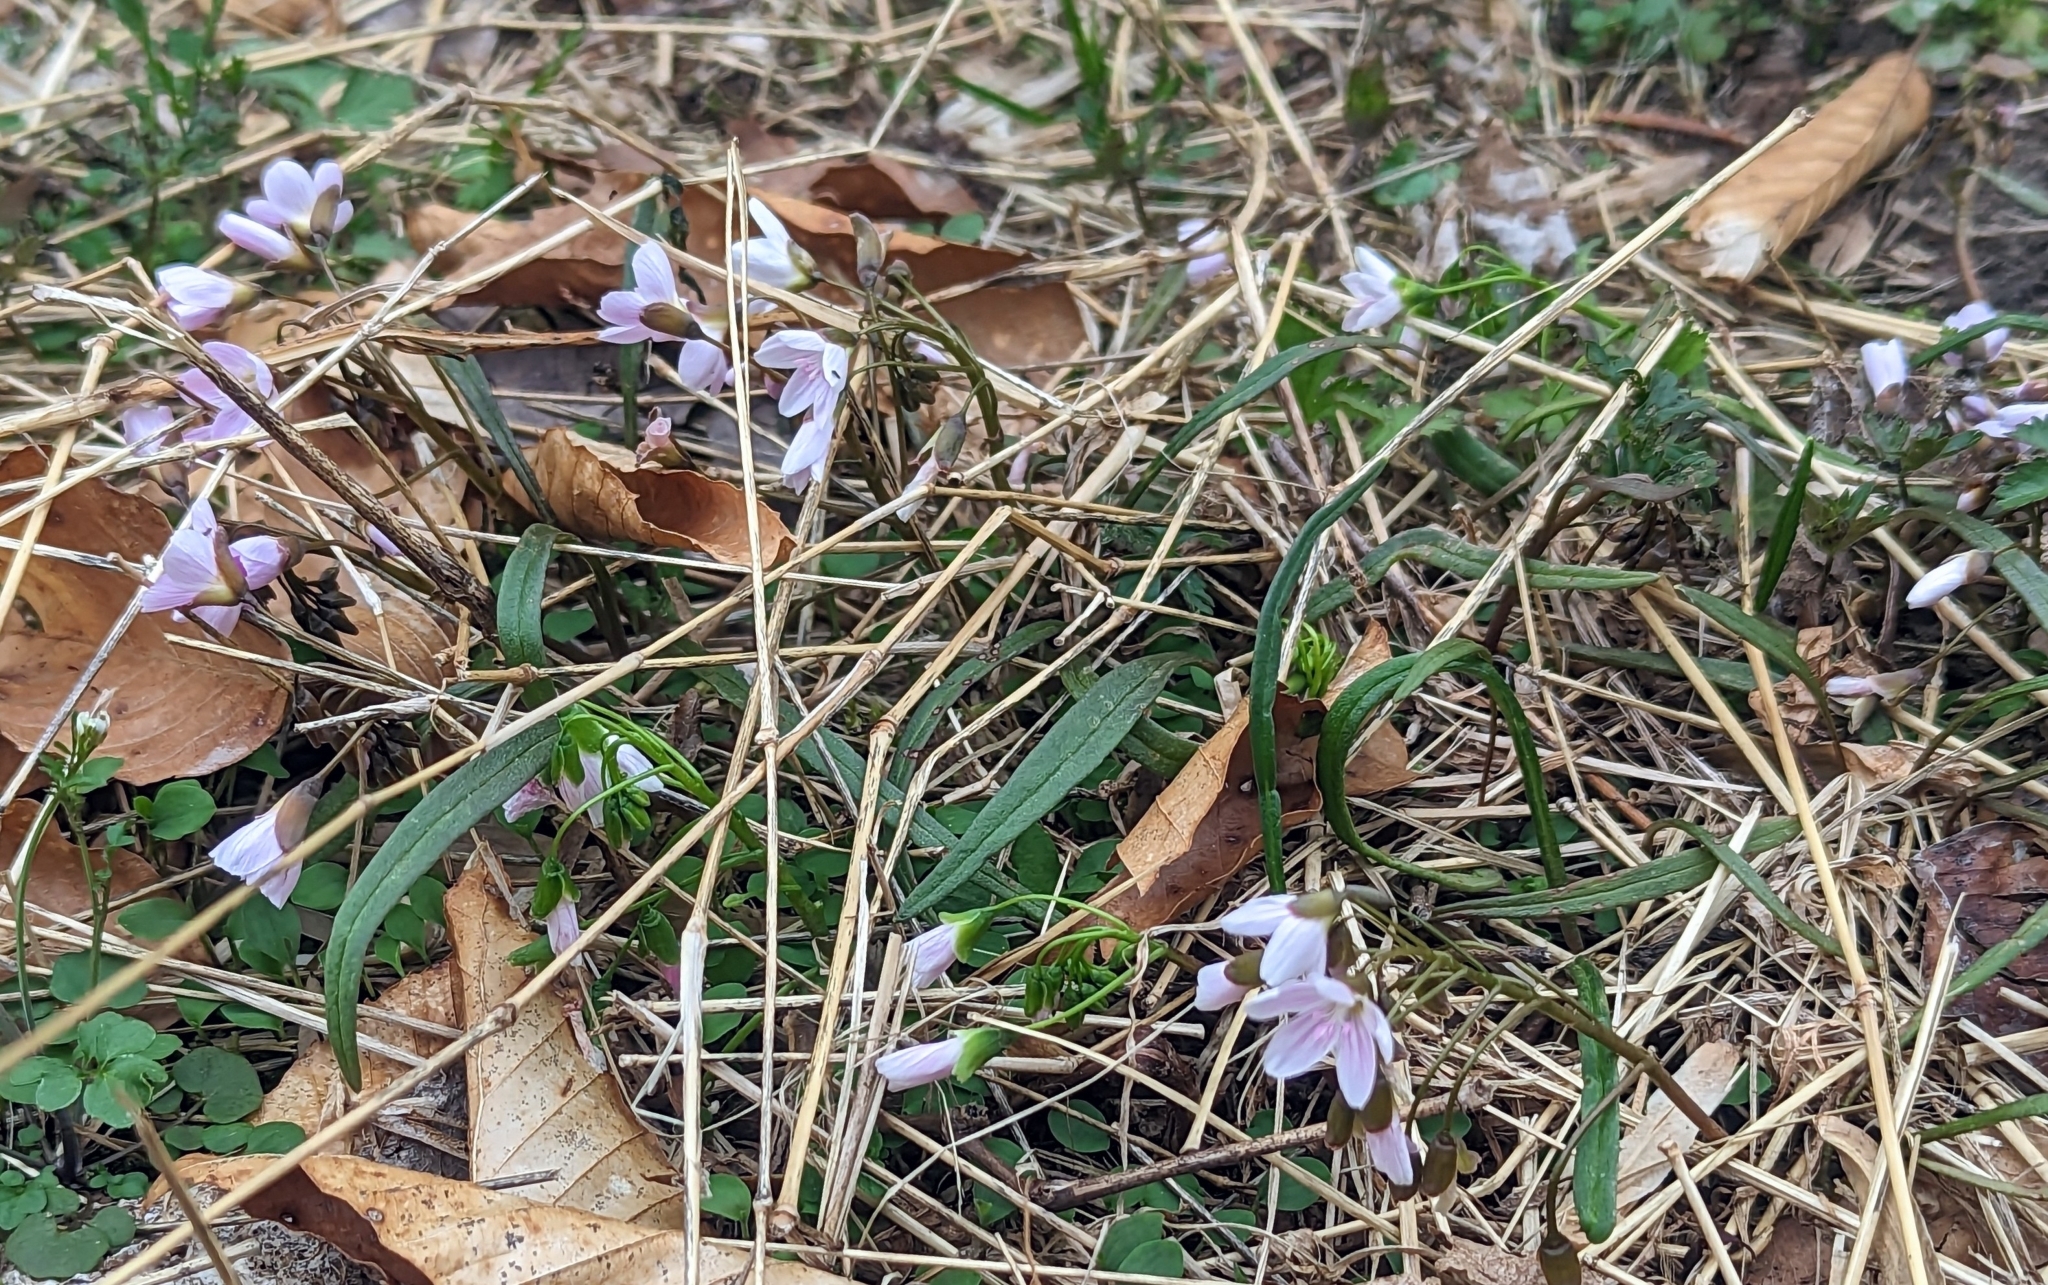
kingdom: Plantae
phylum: Tracheophyta
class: Magnoliopsida
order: Caryophyllales
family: Montiaceae
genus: Claytonia
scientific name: Claytonia virginica
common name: Virginia springbeauty
